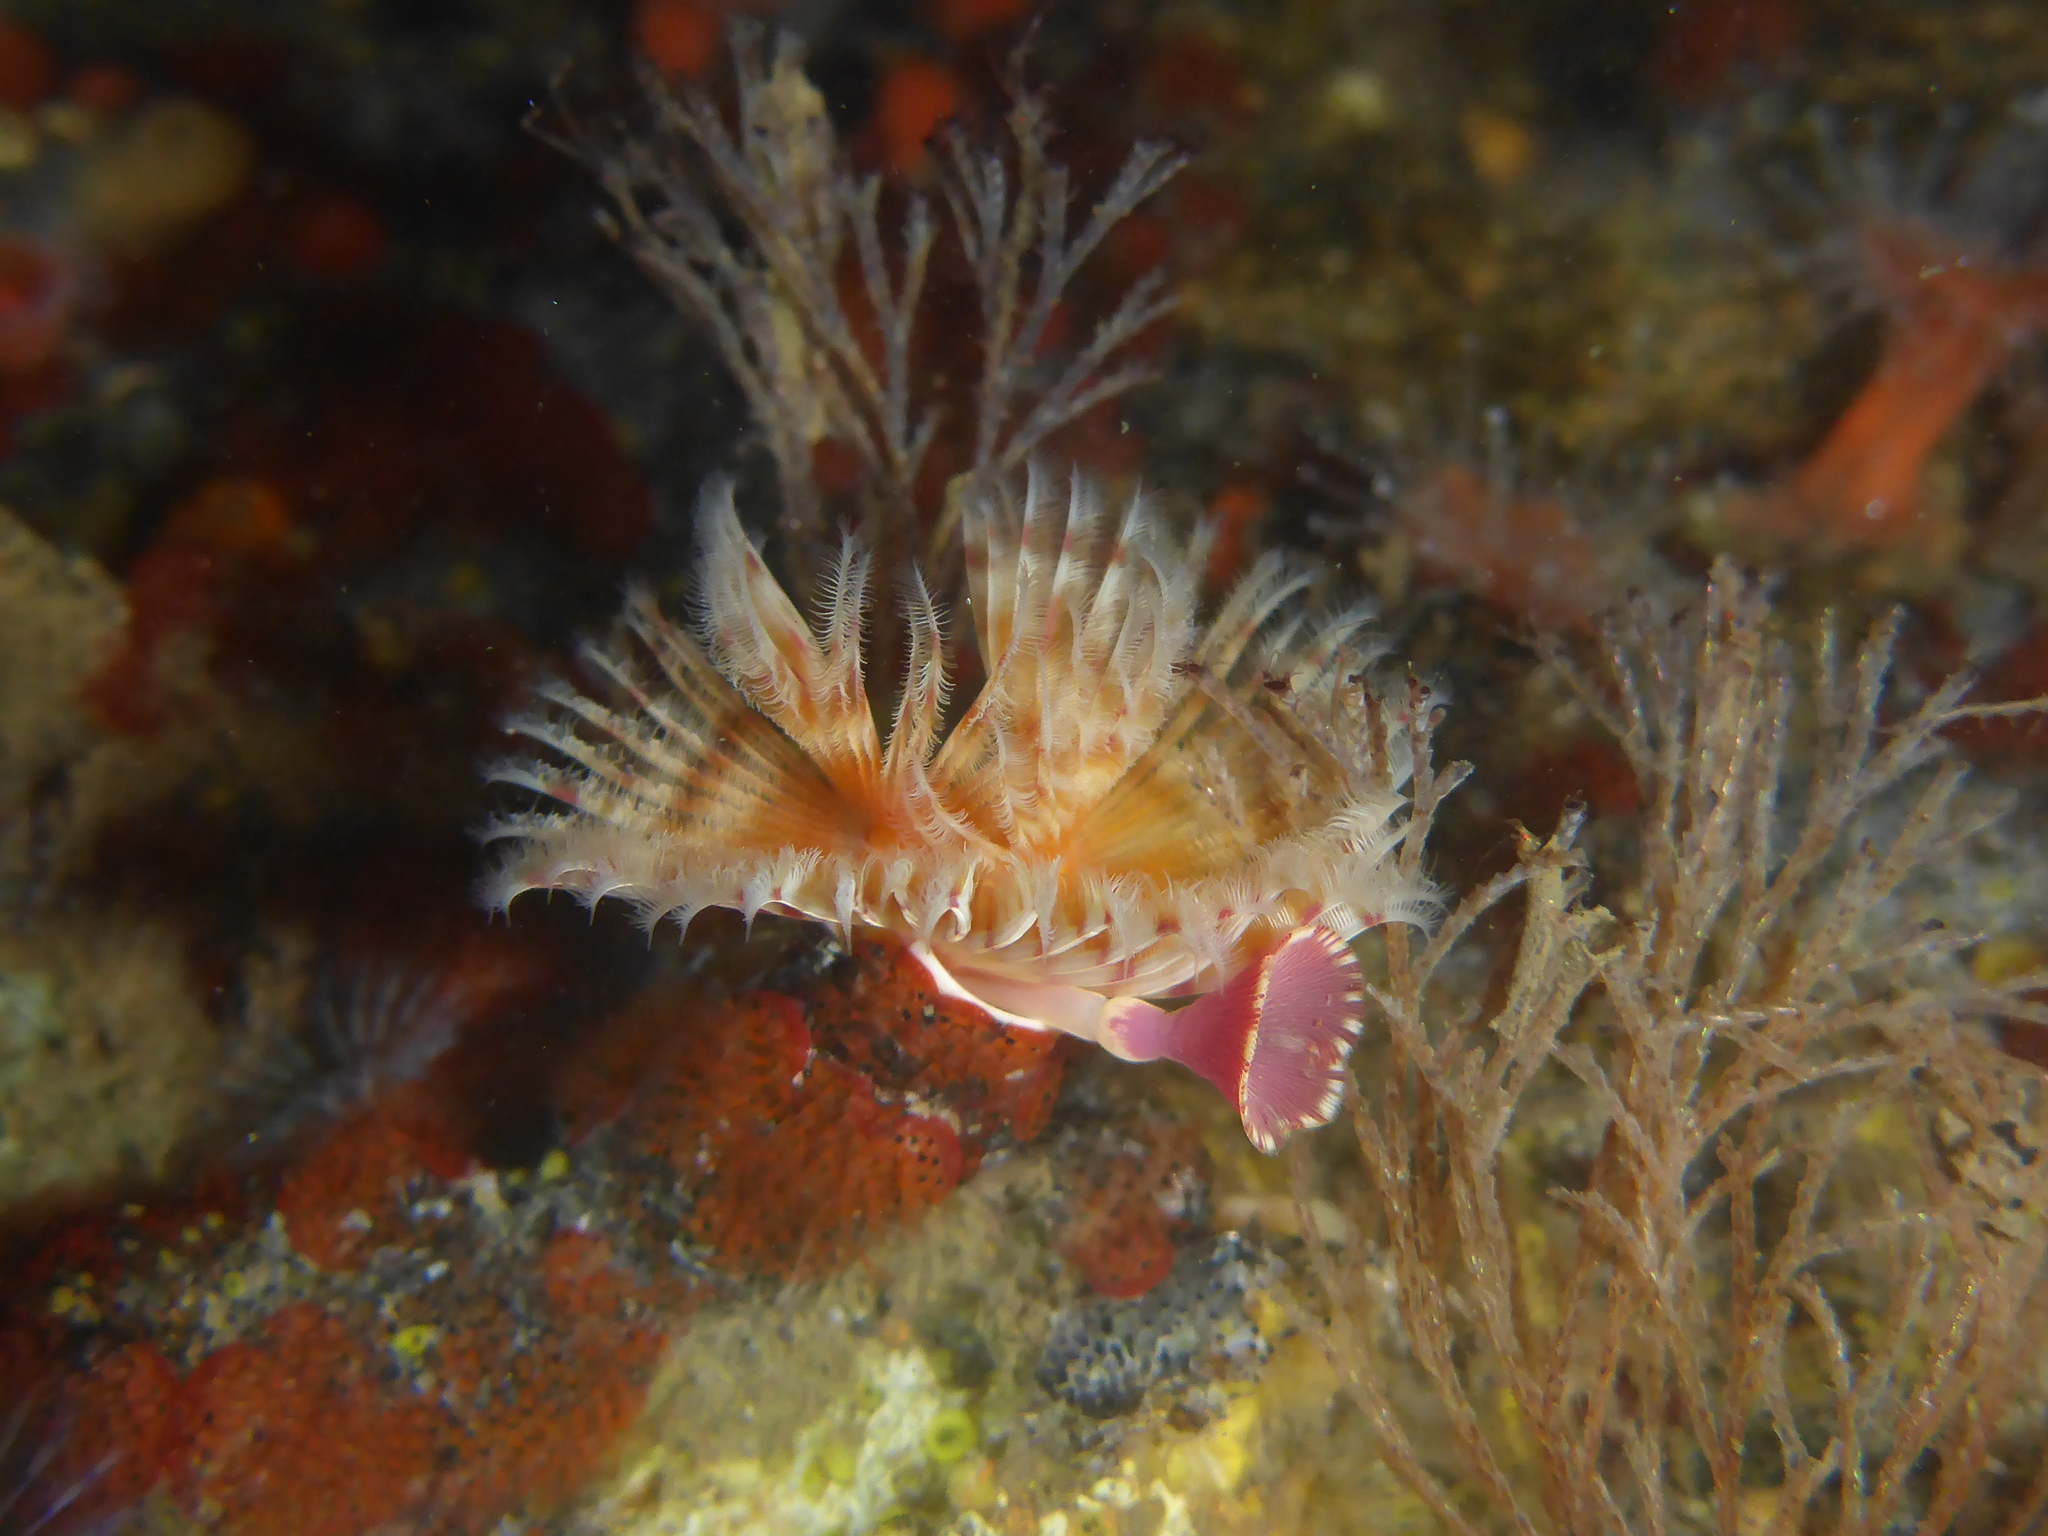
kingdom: Animalia
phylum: Annelida
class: Polychaeta
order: Sabellida
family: Serpulidae
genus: Serpula
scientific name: Serpula columbiana
